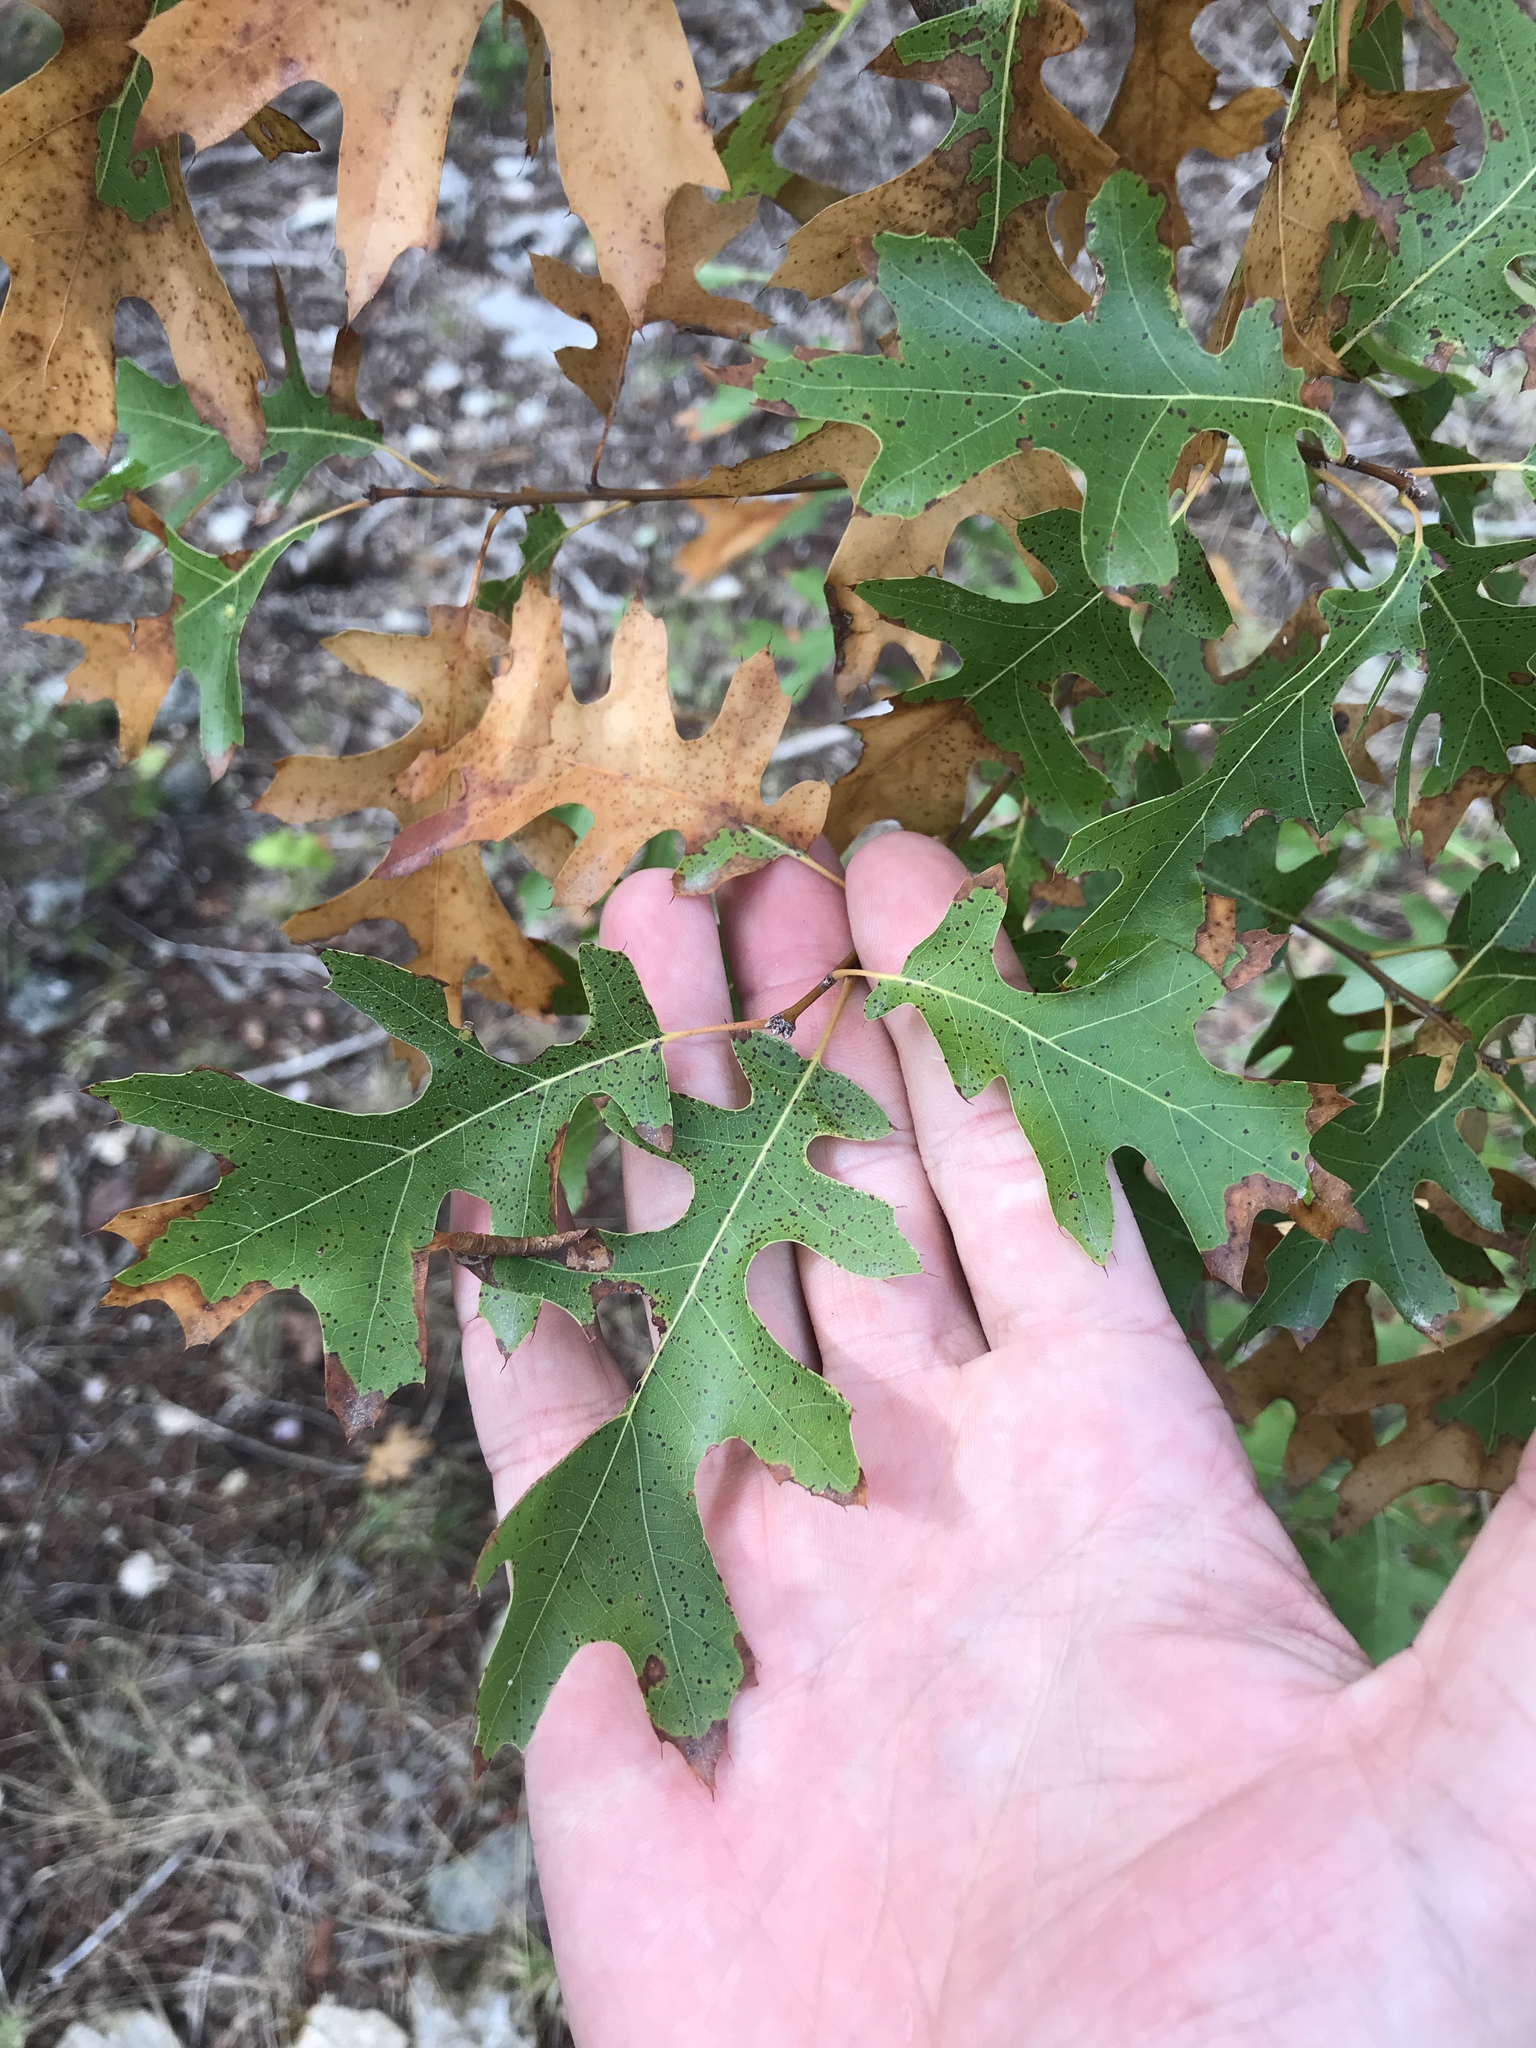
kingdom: Plantae
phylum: Tracheophyta
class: Magnoliopsida
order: Fagales
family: Fagaceae
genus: Quercus
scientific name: Quercus buckleyi
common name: Buckley oak
